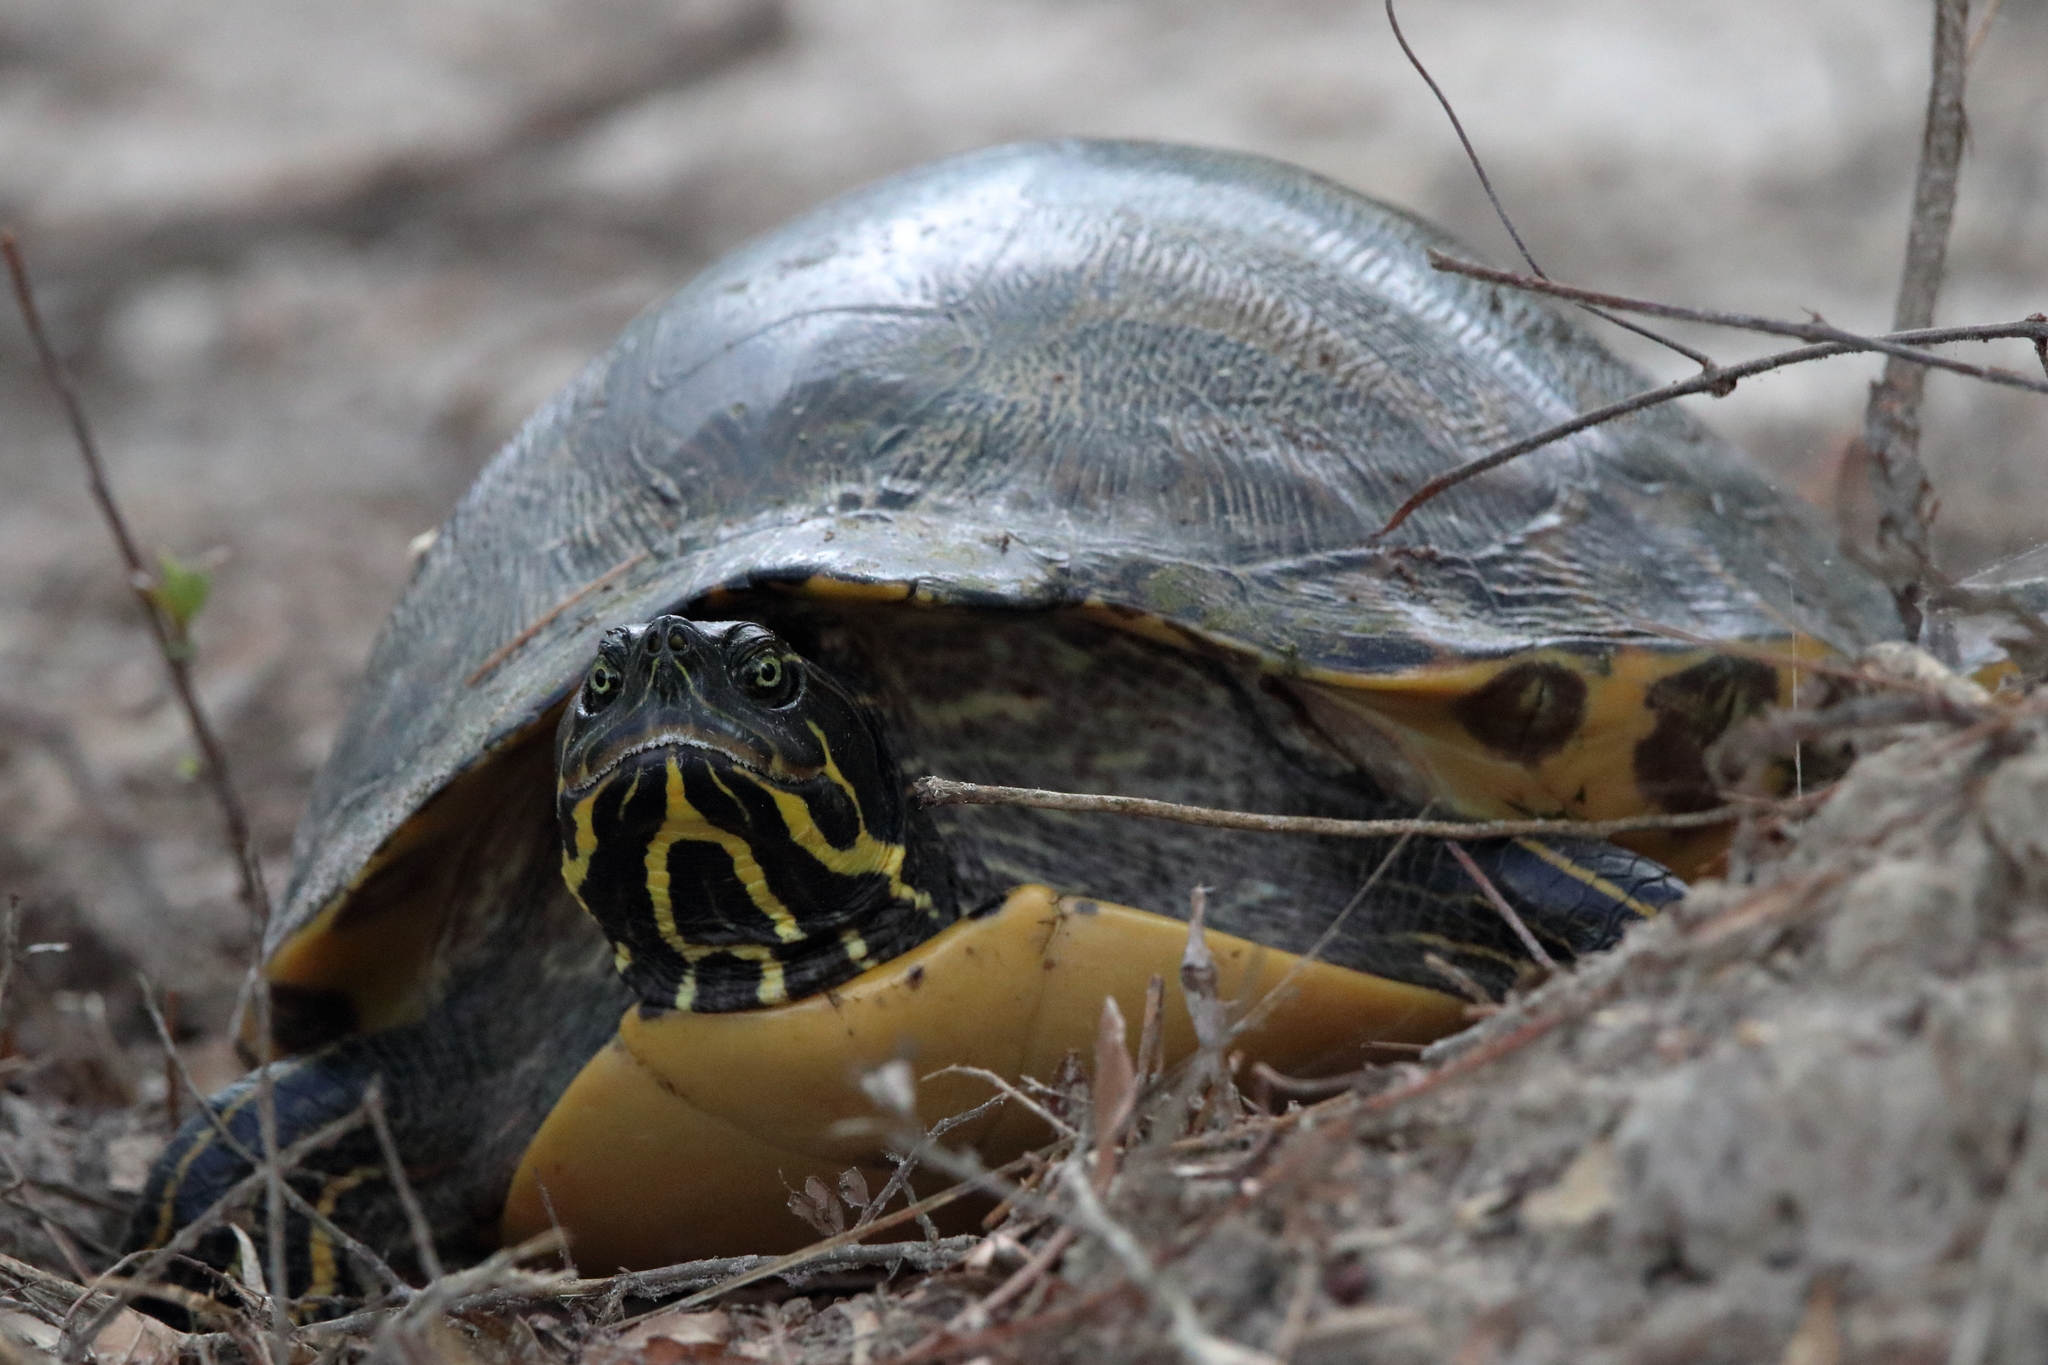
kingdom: Animalia
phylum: Chordata
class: Testudines
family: Emydidae
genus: Pseudemys
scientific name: Pseudemys concinna
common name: Eastern river cooter
